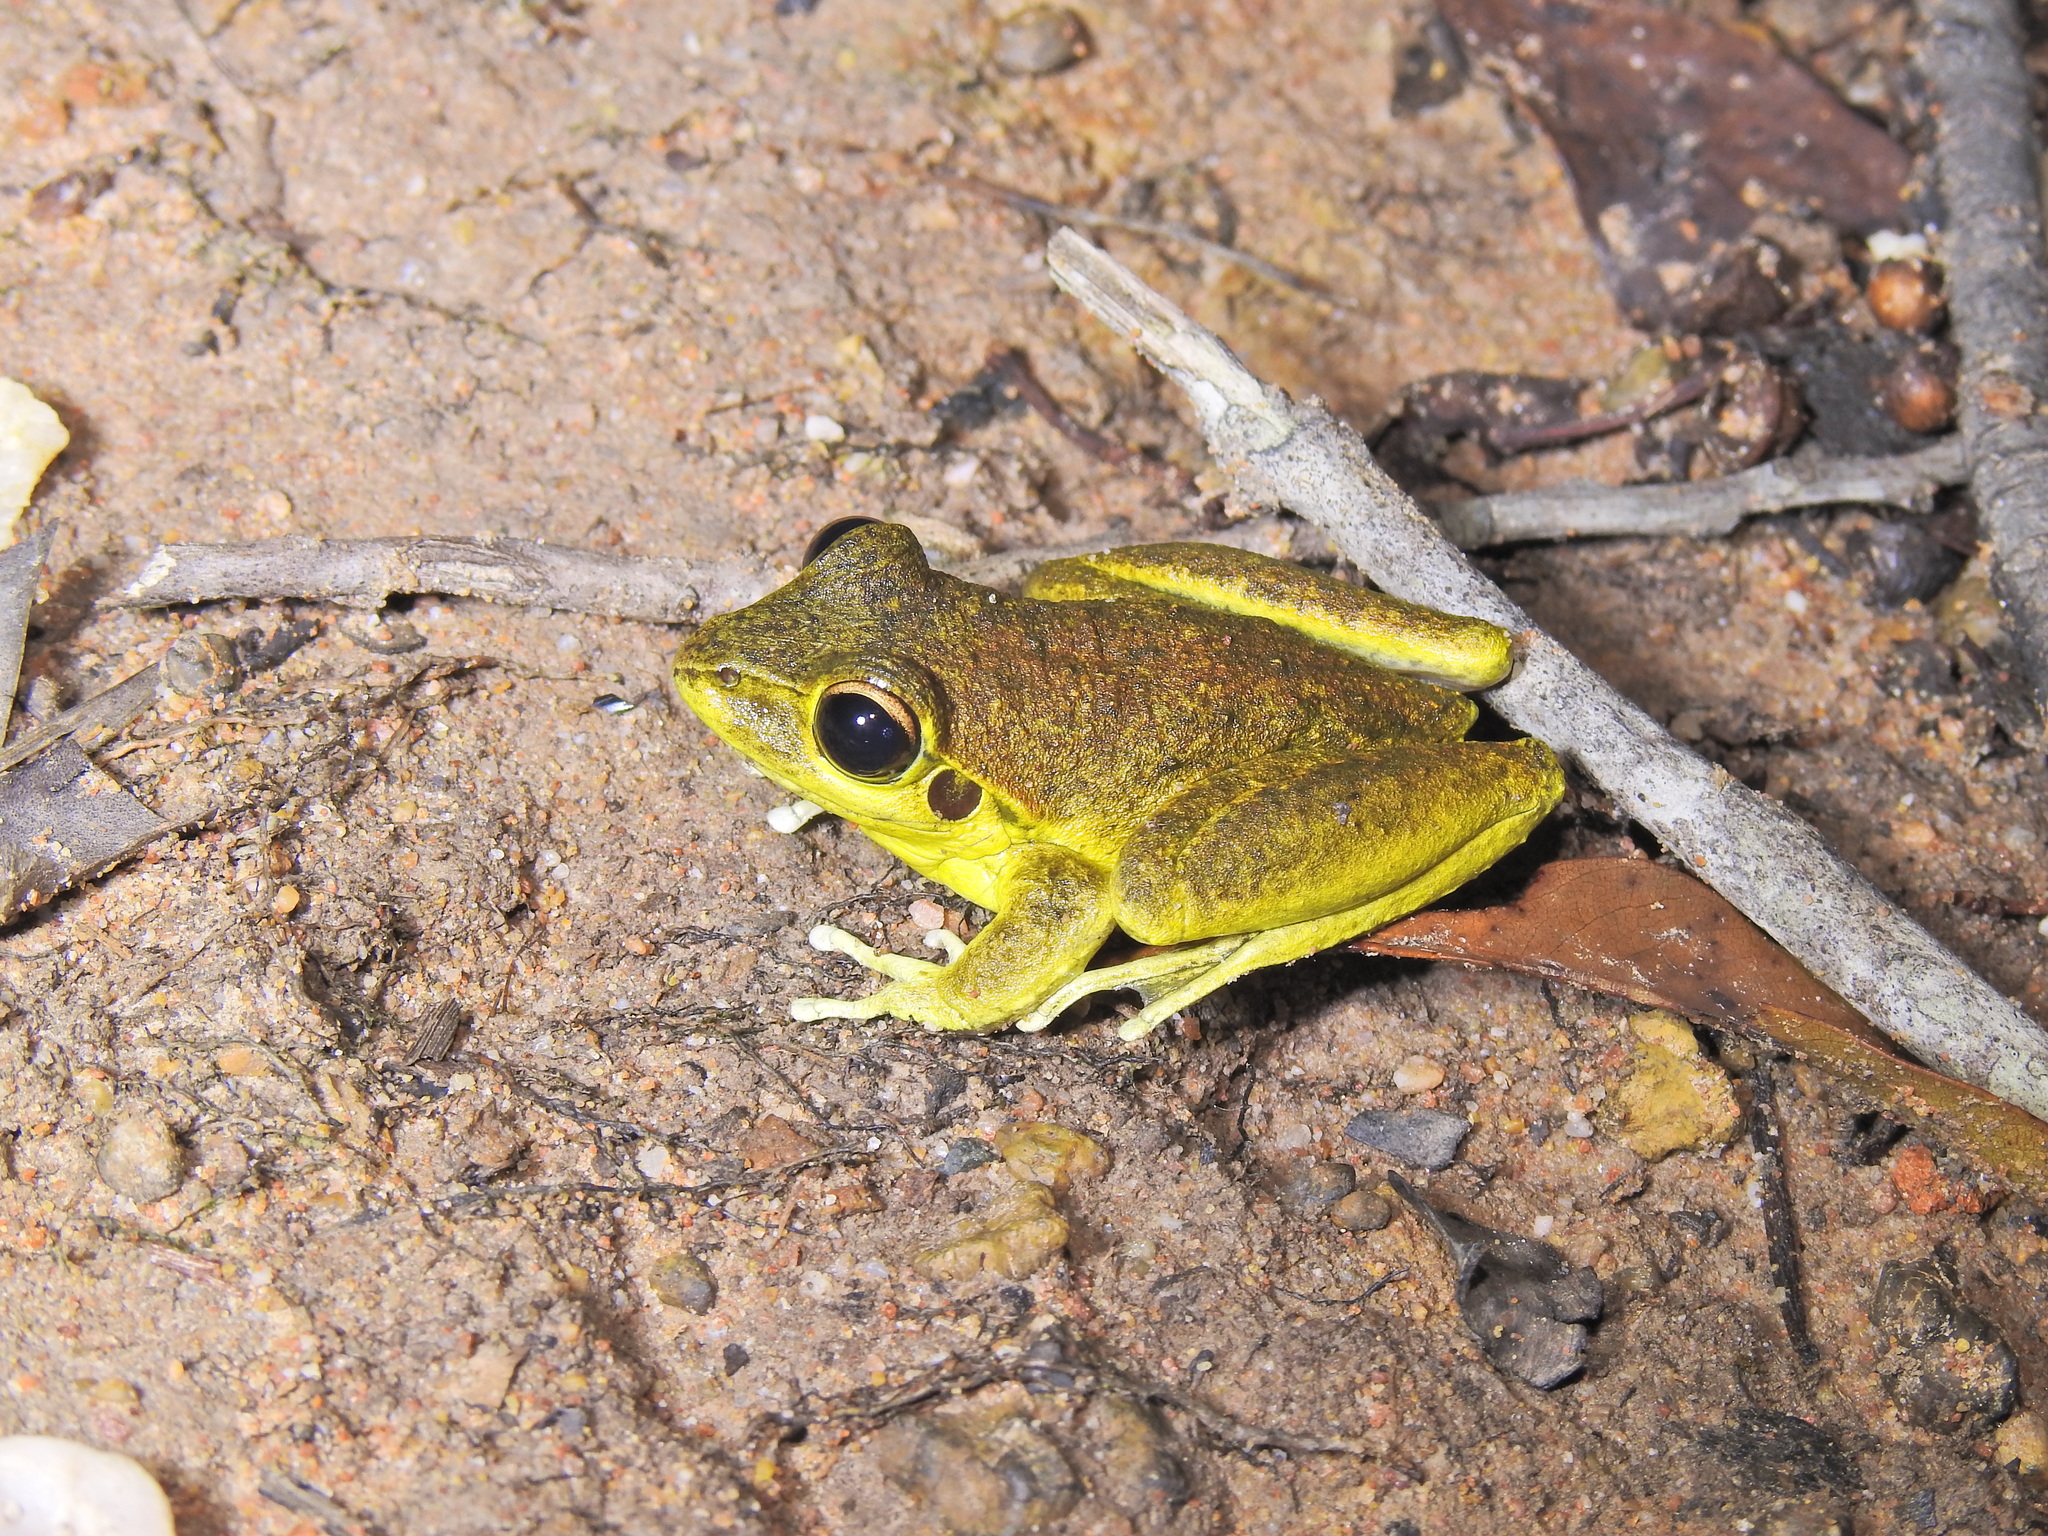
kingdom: Animalia
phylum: Chordata
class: Amphibia
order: Anura
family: Pelodryadidae
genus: Ranoidea
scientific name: Ranoidea wilcoxii
